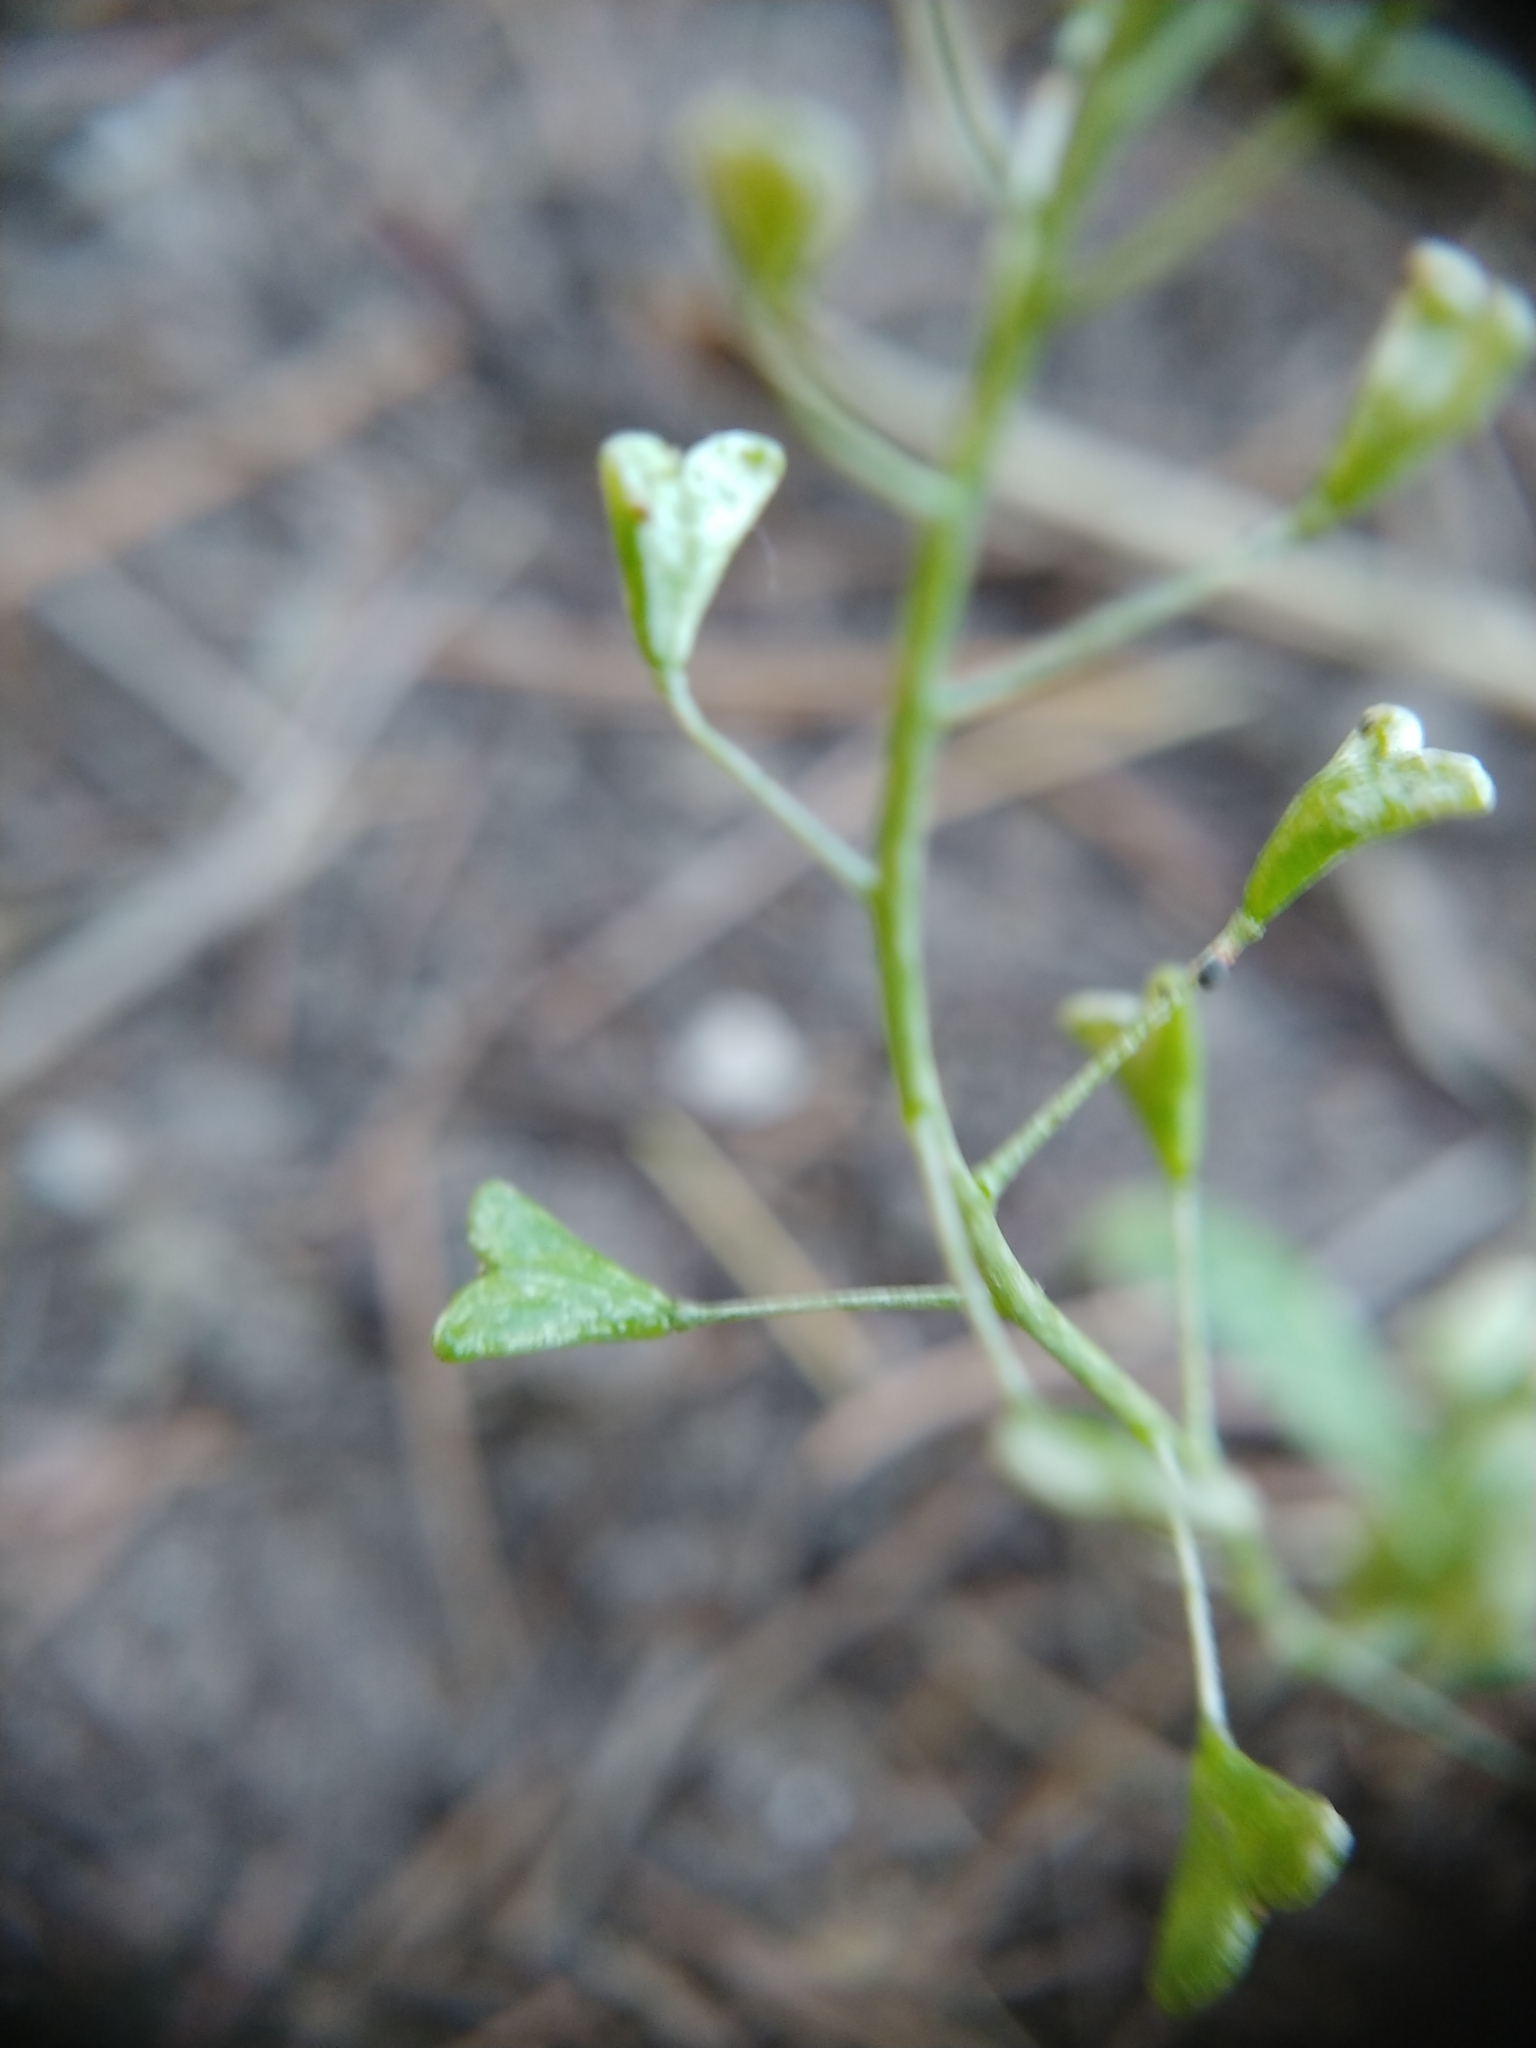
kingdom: Plantae
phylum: Tracheophyta
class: Magnoliopsida
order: Brassicales
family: Brassicaceae
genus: Capsella
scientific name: Capsella bursa-pastoris
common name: Shepherd's purse
